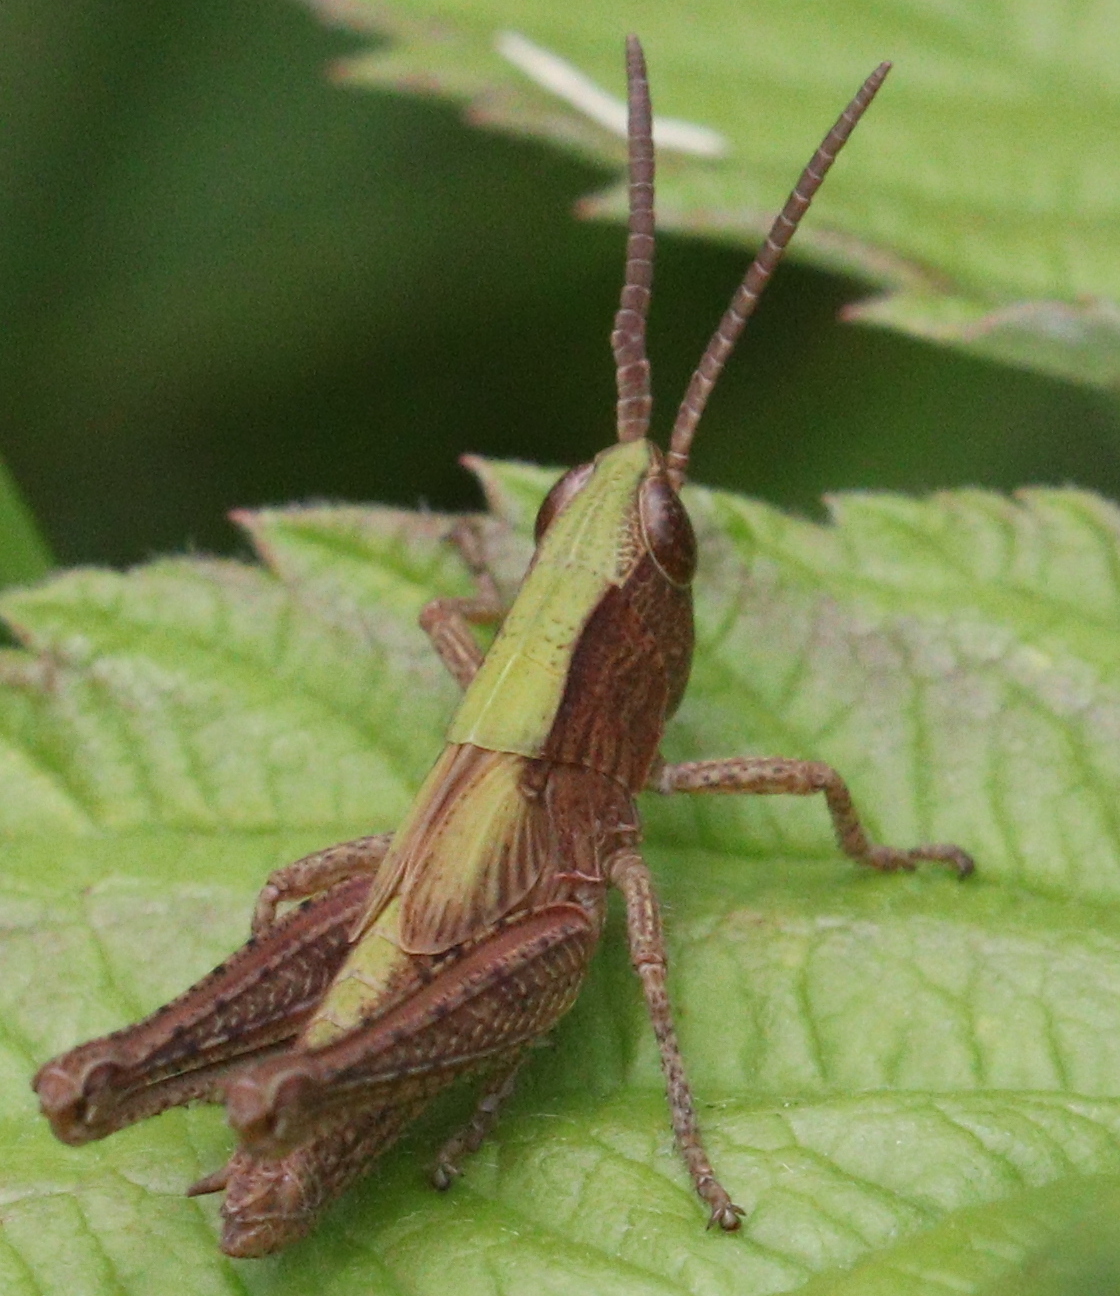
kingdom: Animalia
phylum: Arthropoda
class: Insecta
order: Orthoptera
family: Acrididae
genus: Chorthippus
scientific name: Chorthippus dorsatus
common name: Steppe grasshopper
